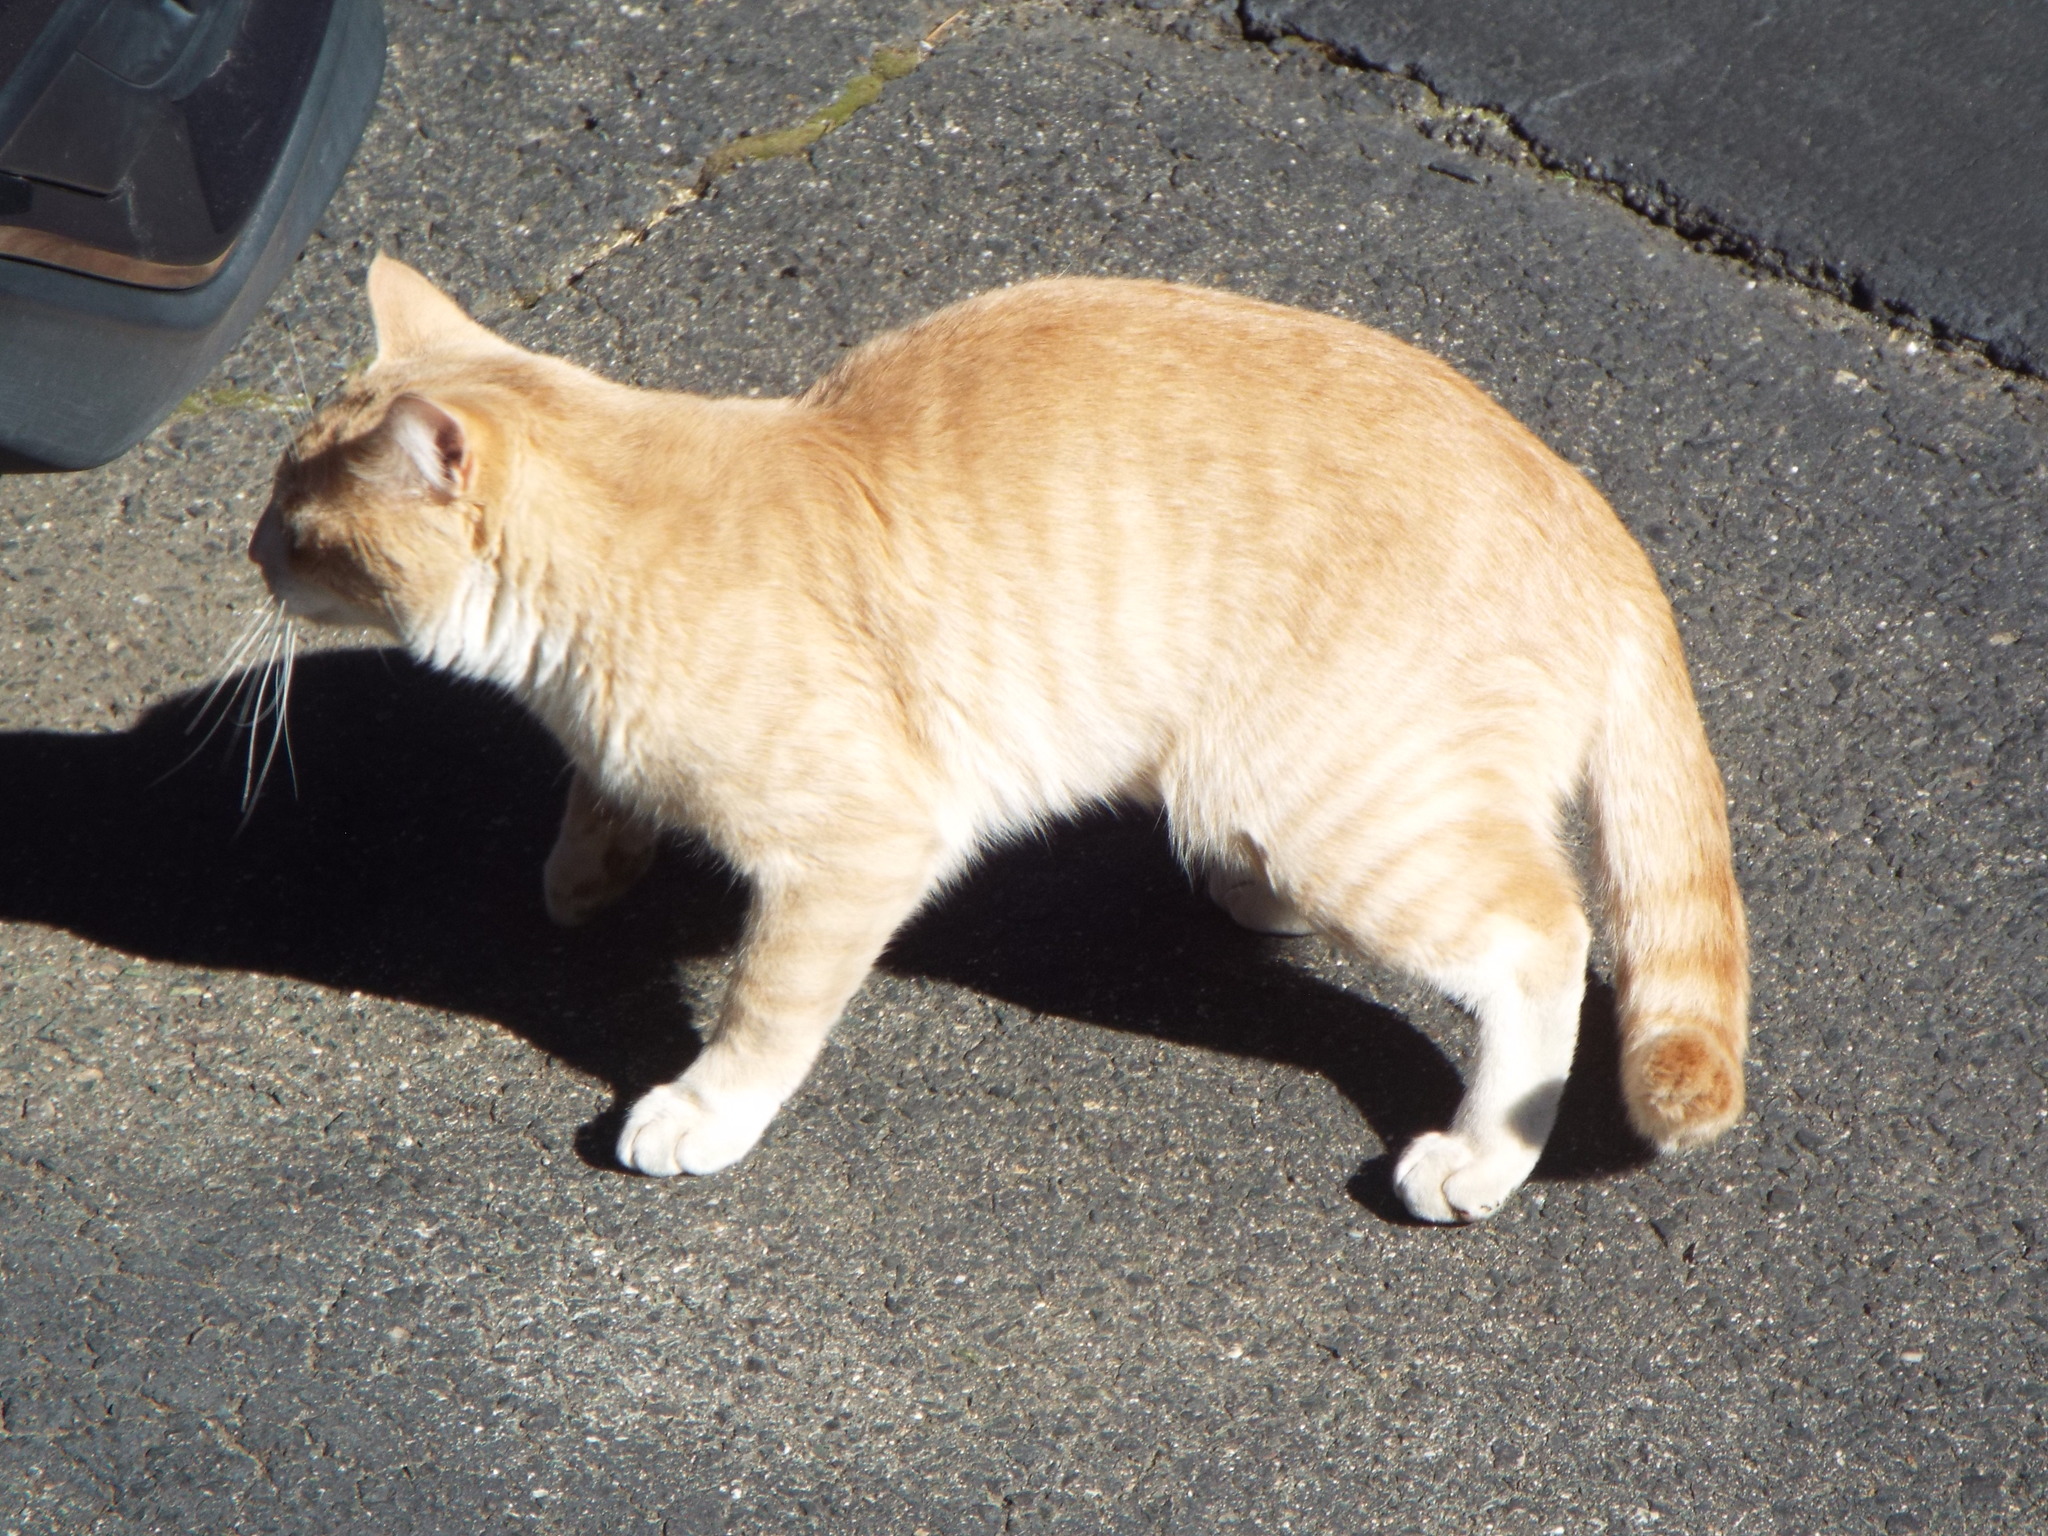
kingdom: Animalia
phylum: Chordata
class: Mammalia
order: Carnivora
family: Felidae
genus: Felis
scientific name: Felis catus
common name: Domestic cat
